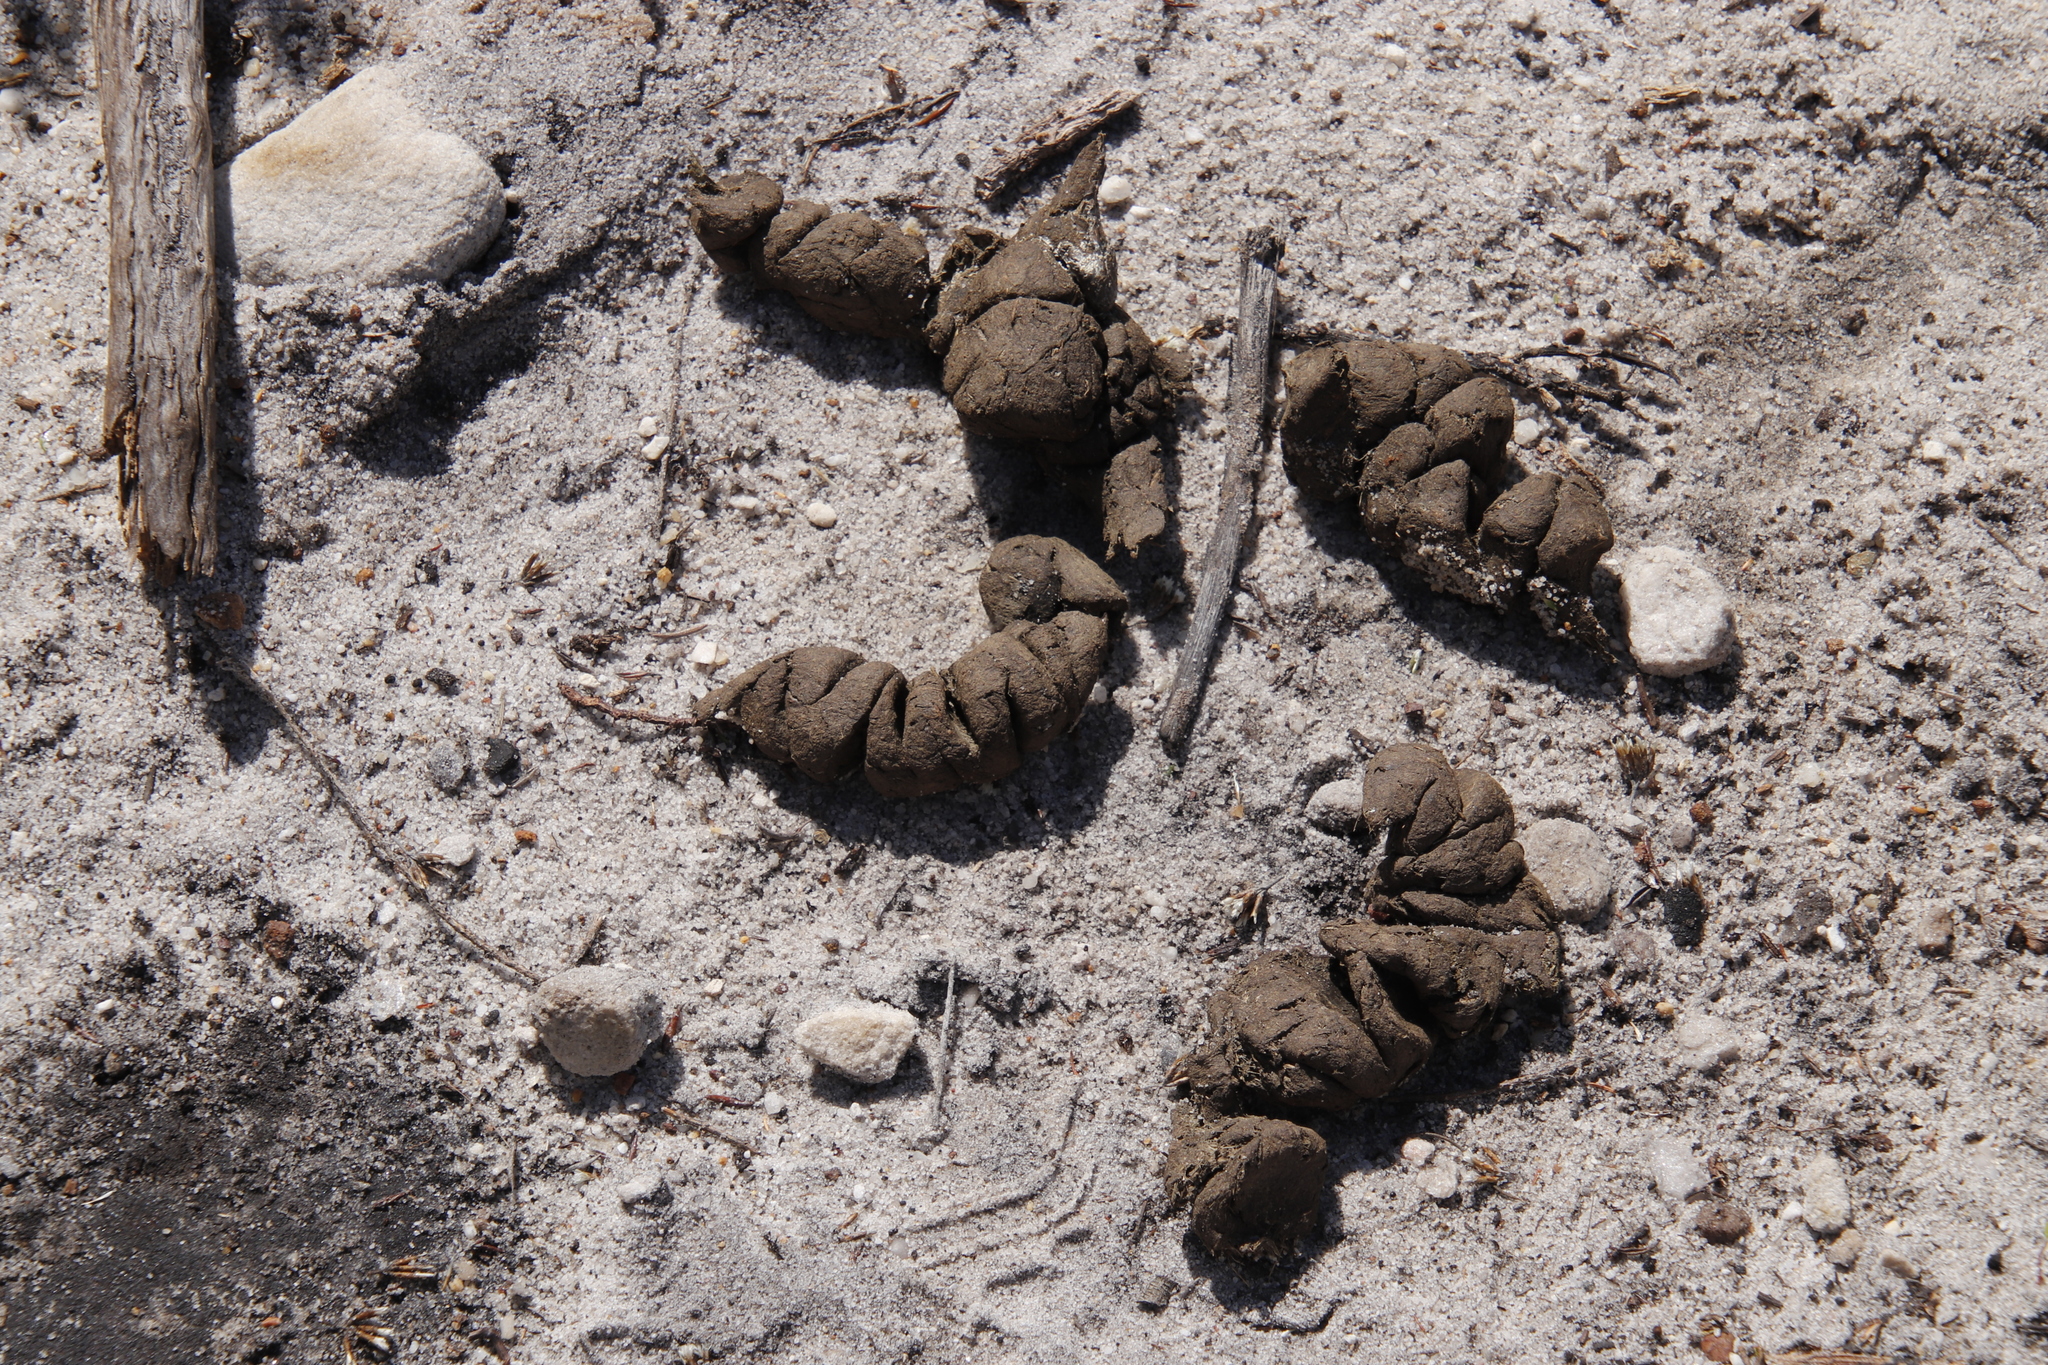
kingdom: Animalia
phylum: Chordata
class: Aves
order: Struthioniformes
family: Struthionidae
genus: Struthio
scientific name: Struthio camelus
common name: Common ostrich
